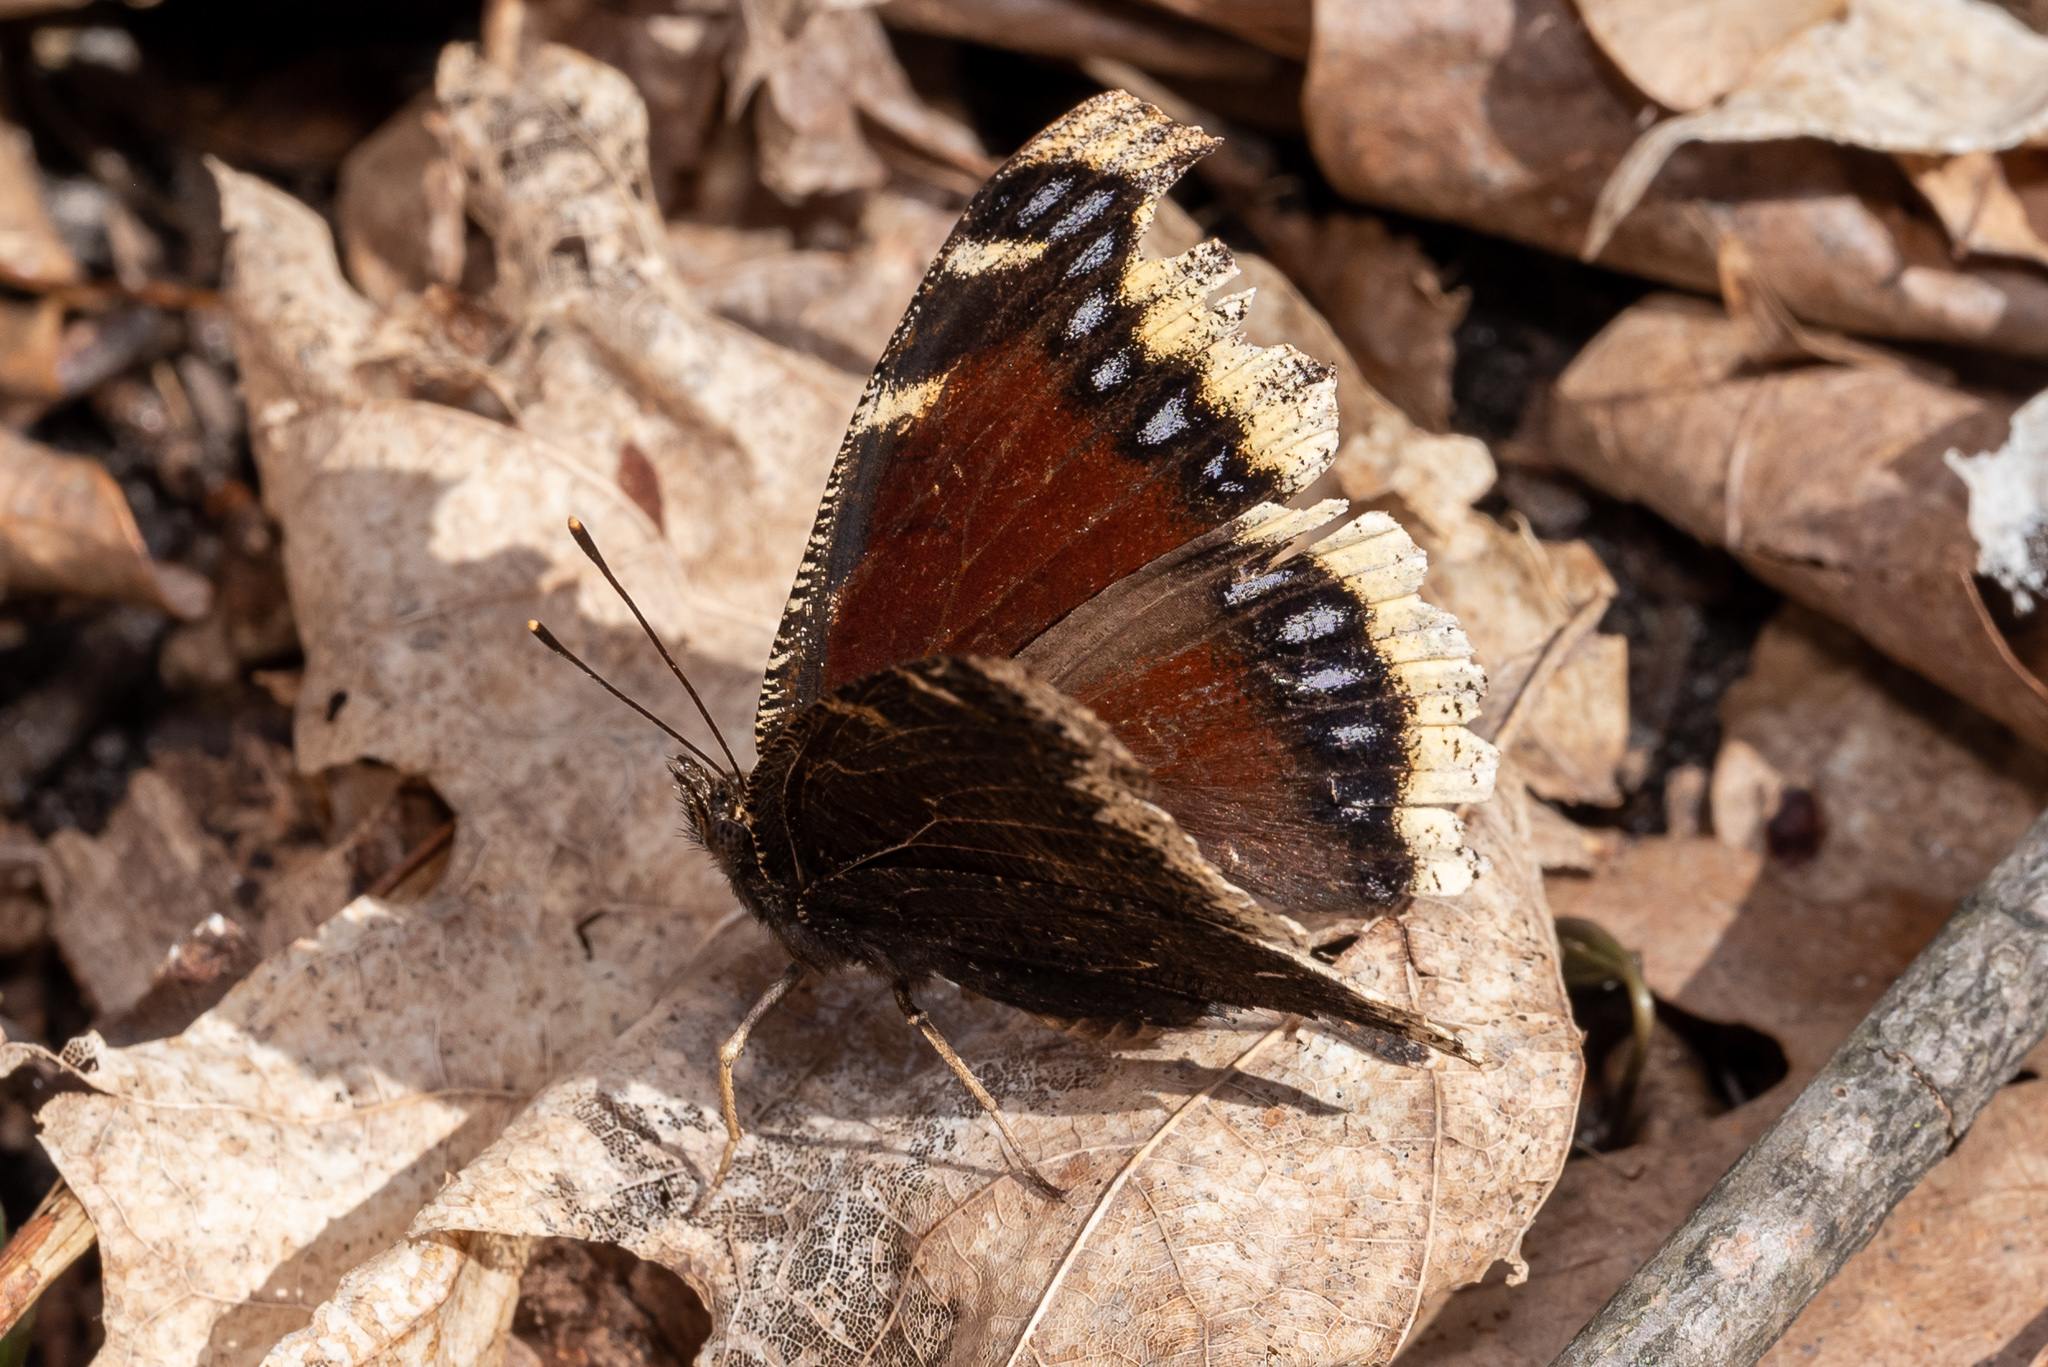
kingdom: Animalia
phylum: Arthropoda
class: Insecta
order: Lepidoptera
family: Nymphalidae
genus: Nymphalis
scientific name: Nymphalis antiopa
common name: Camberwell beauty
